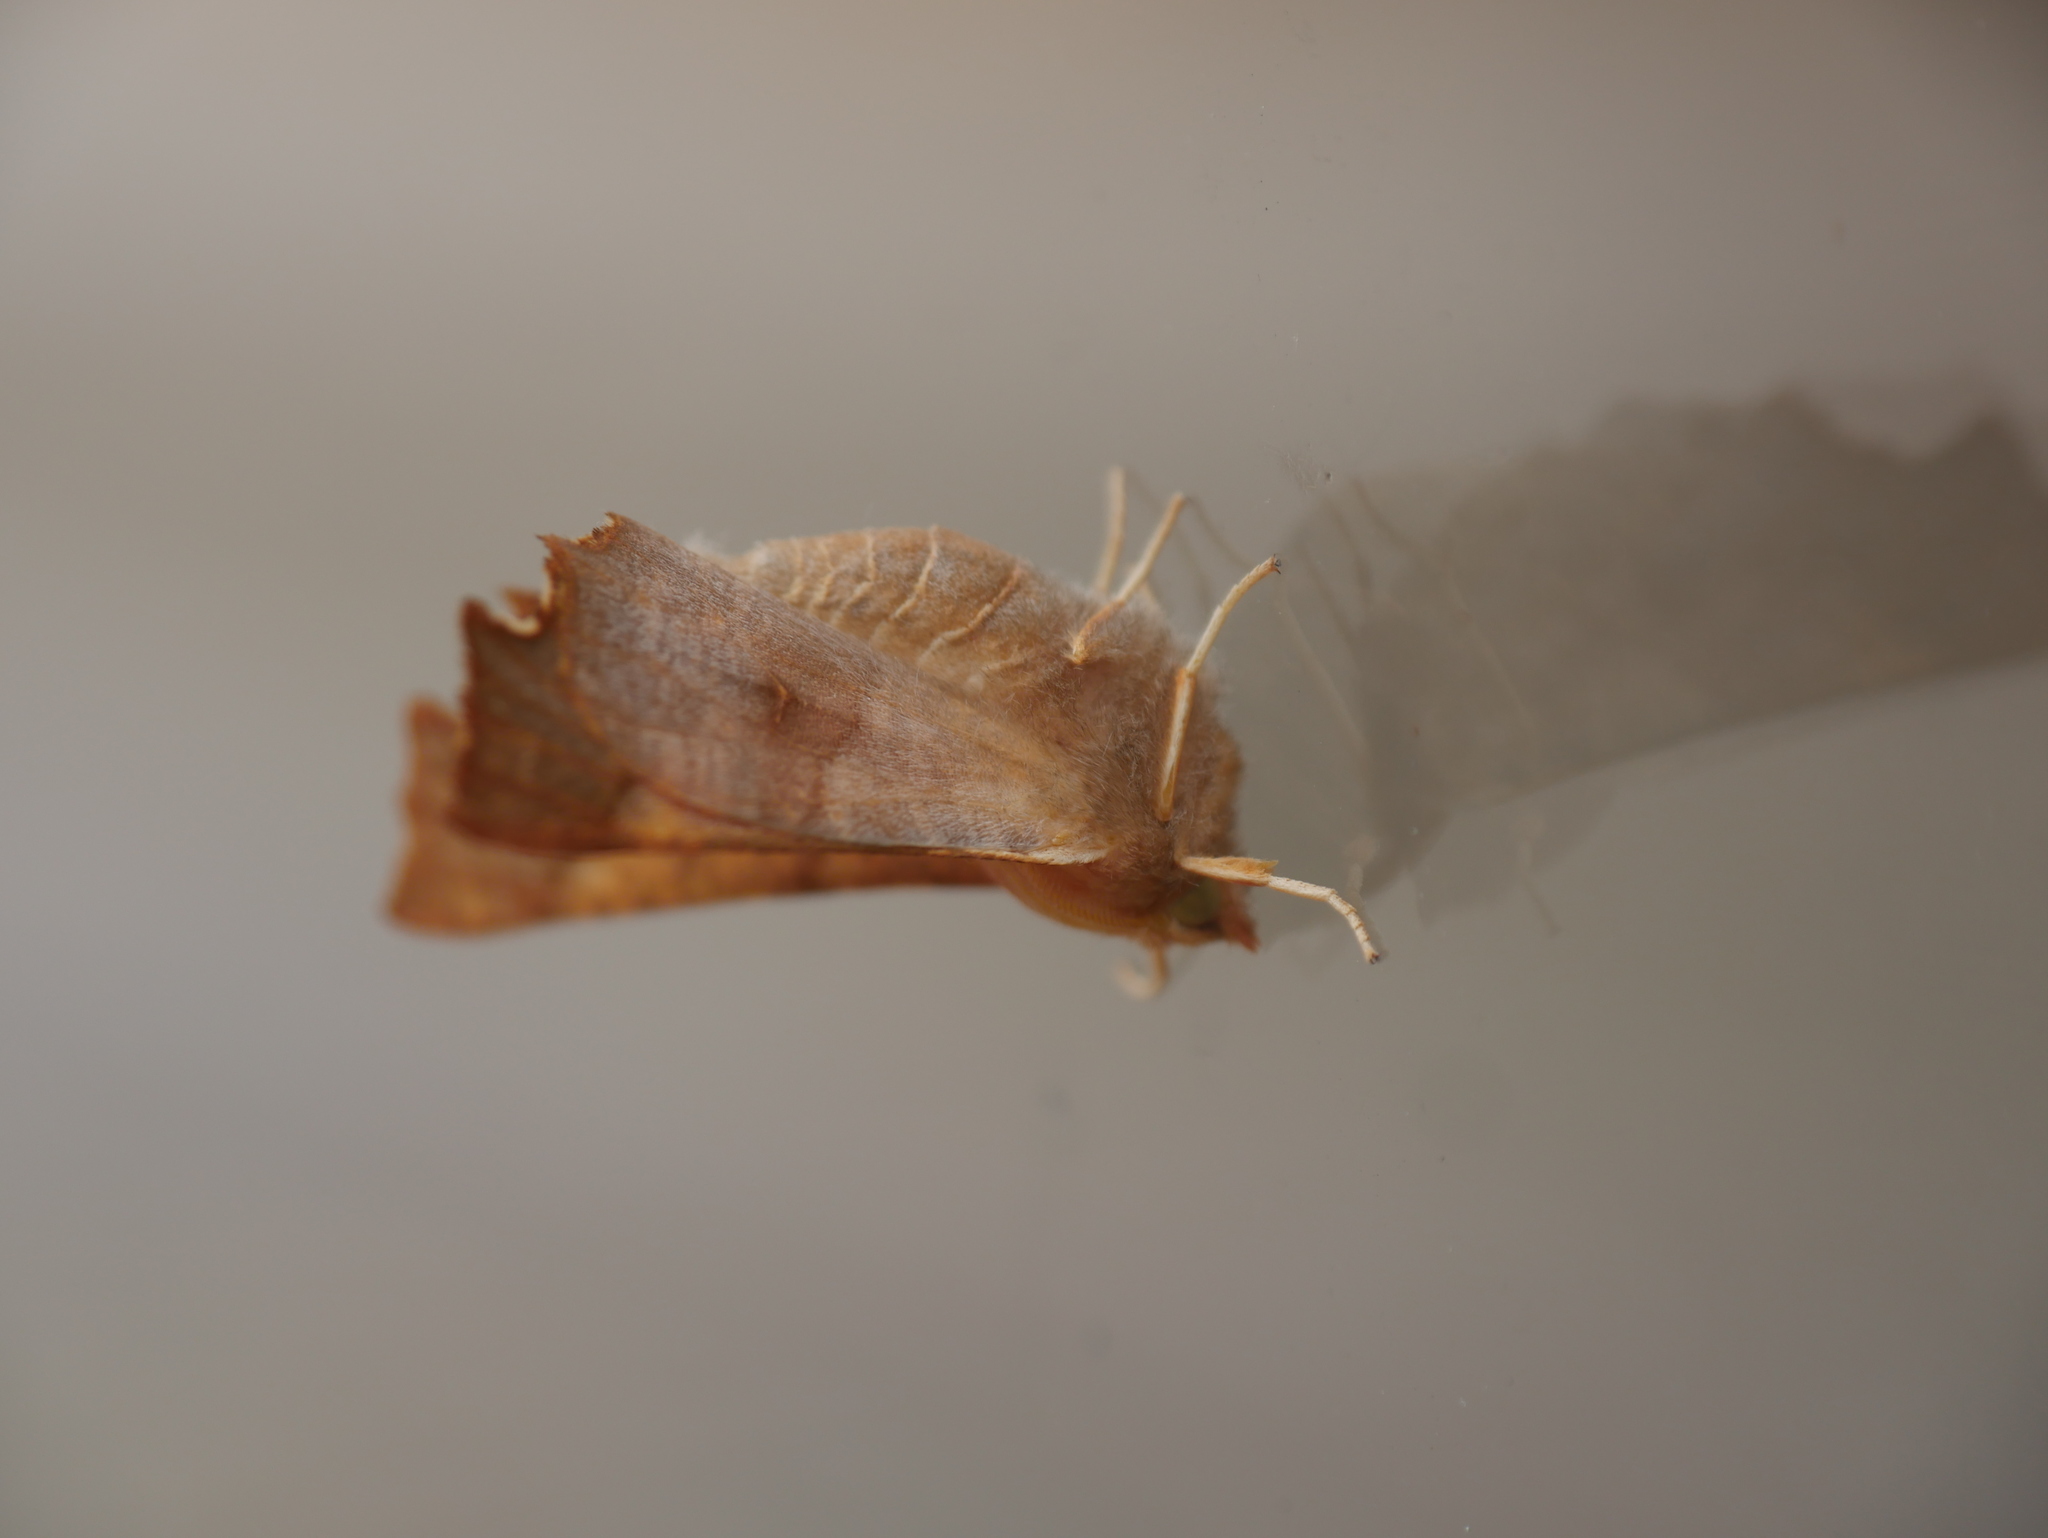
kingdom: Animalia
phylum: Arthropoda
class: Insecta
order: Lepidoptera
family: Geometridae
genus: Ennomos
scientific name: Ennomos fuscantaria
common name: Dusky thorn
